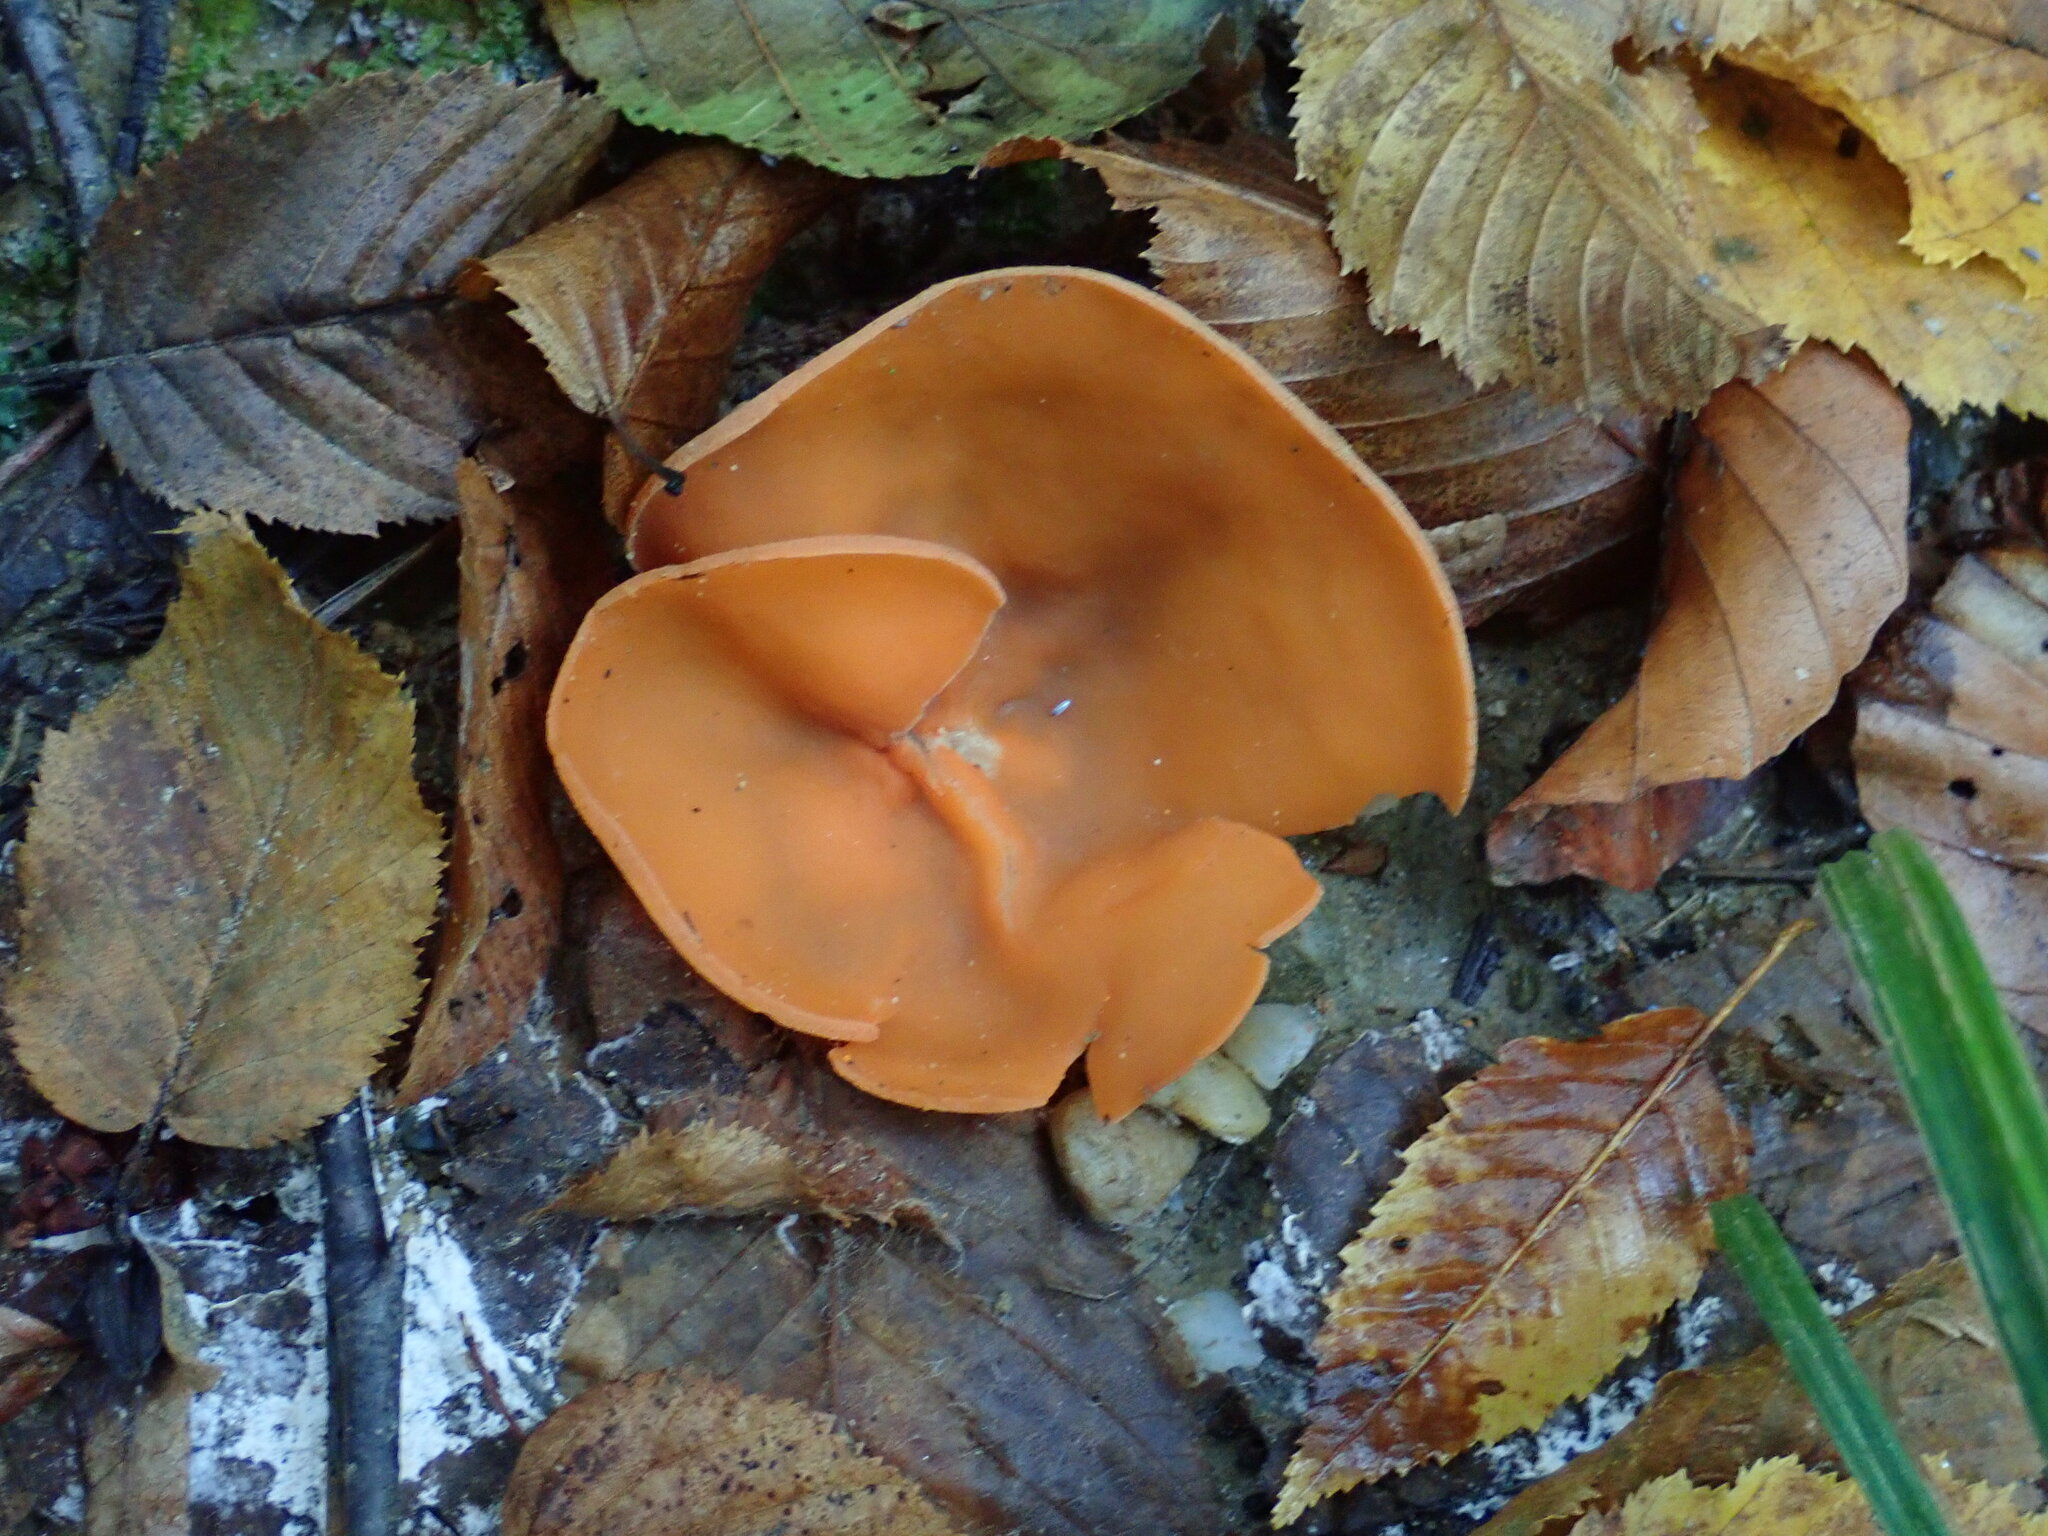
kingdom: Fungi
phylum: Ascomycota
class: Pezizomycetes
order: Pezizales
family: Pyronemataceae
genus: Aleuria
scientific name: Aleuria aurantia
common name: Orange peel fungus
